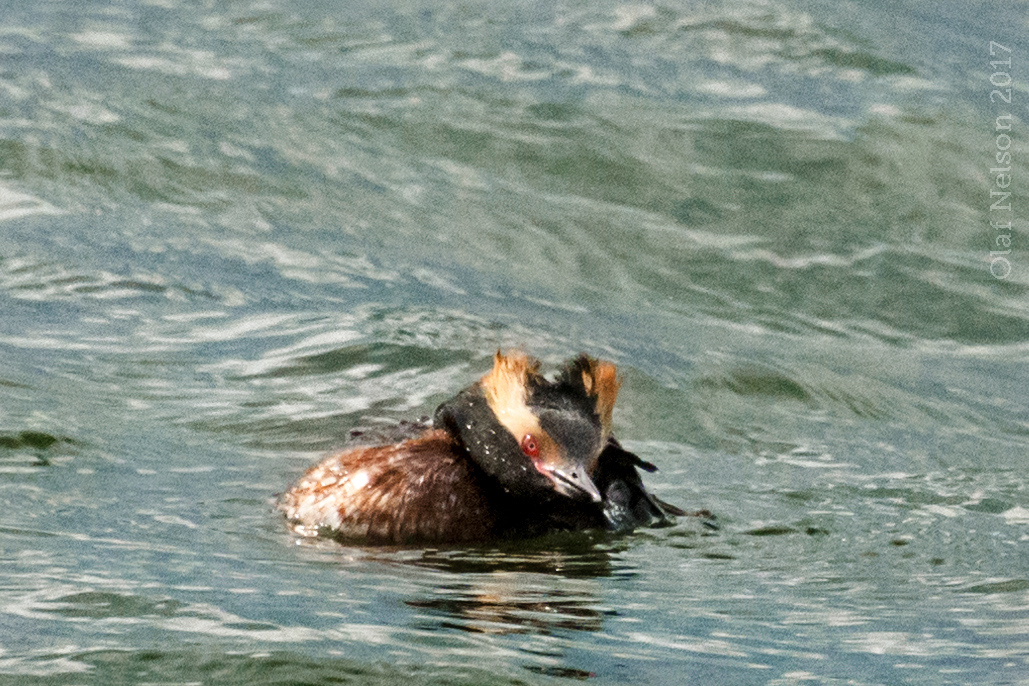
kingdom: Animalia
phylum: Chordata
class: Aves
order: Podicipediformes
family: Podicipedidae
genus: Podiceps
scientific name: Podiceps auritus
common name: Horned grebe
